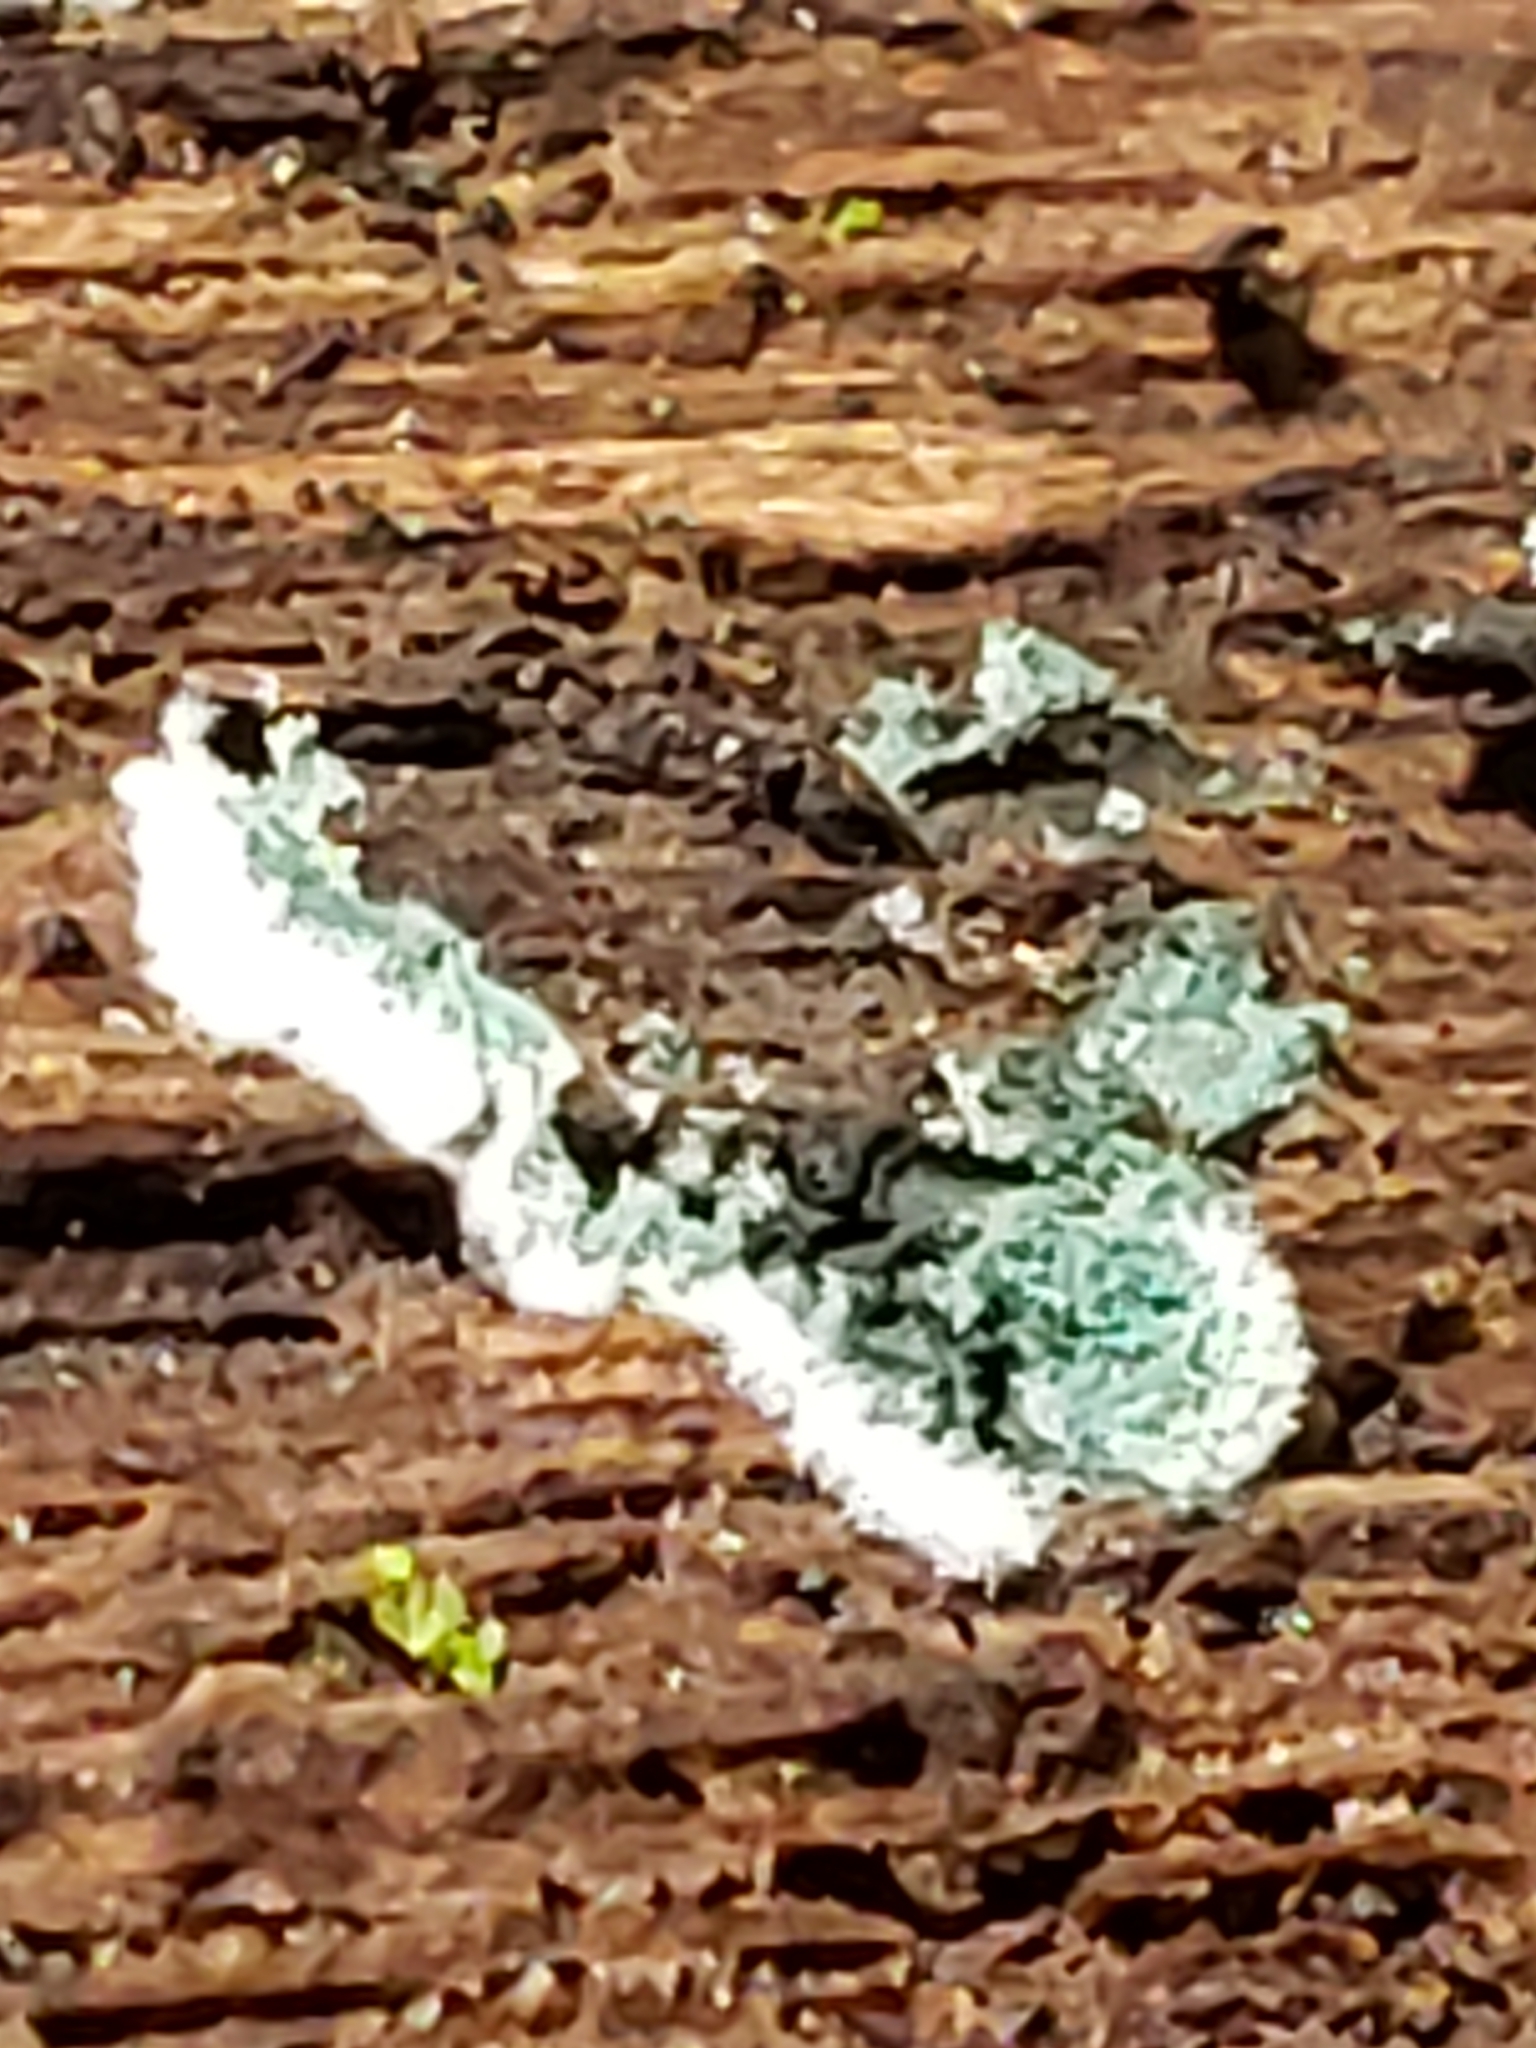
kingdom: Fungi
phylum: Ascomycota
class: Sordariomycetes
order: Hypocreales
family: Hypocreaceae
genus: Trichoderma
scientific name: Trichoderma viride
